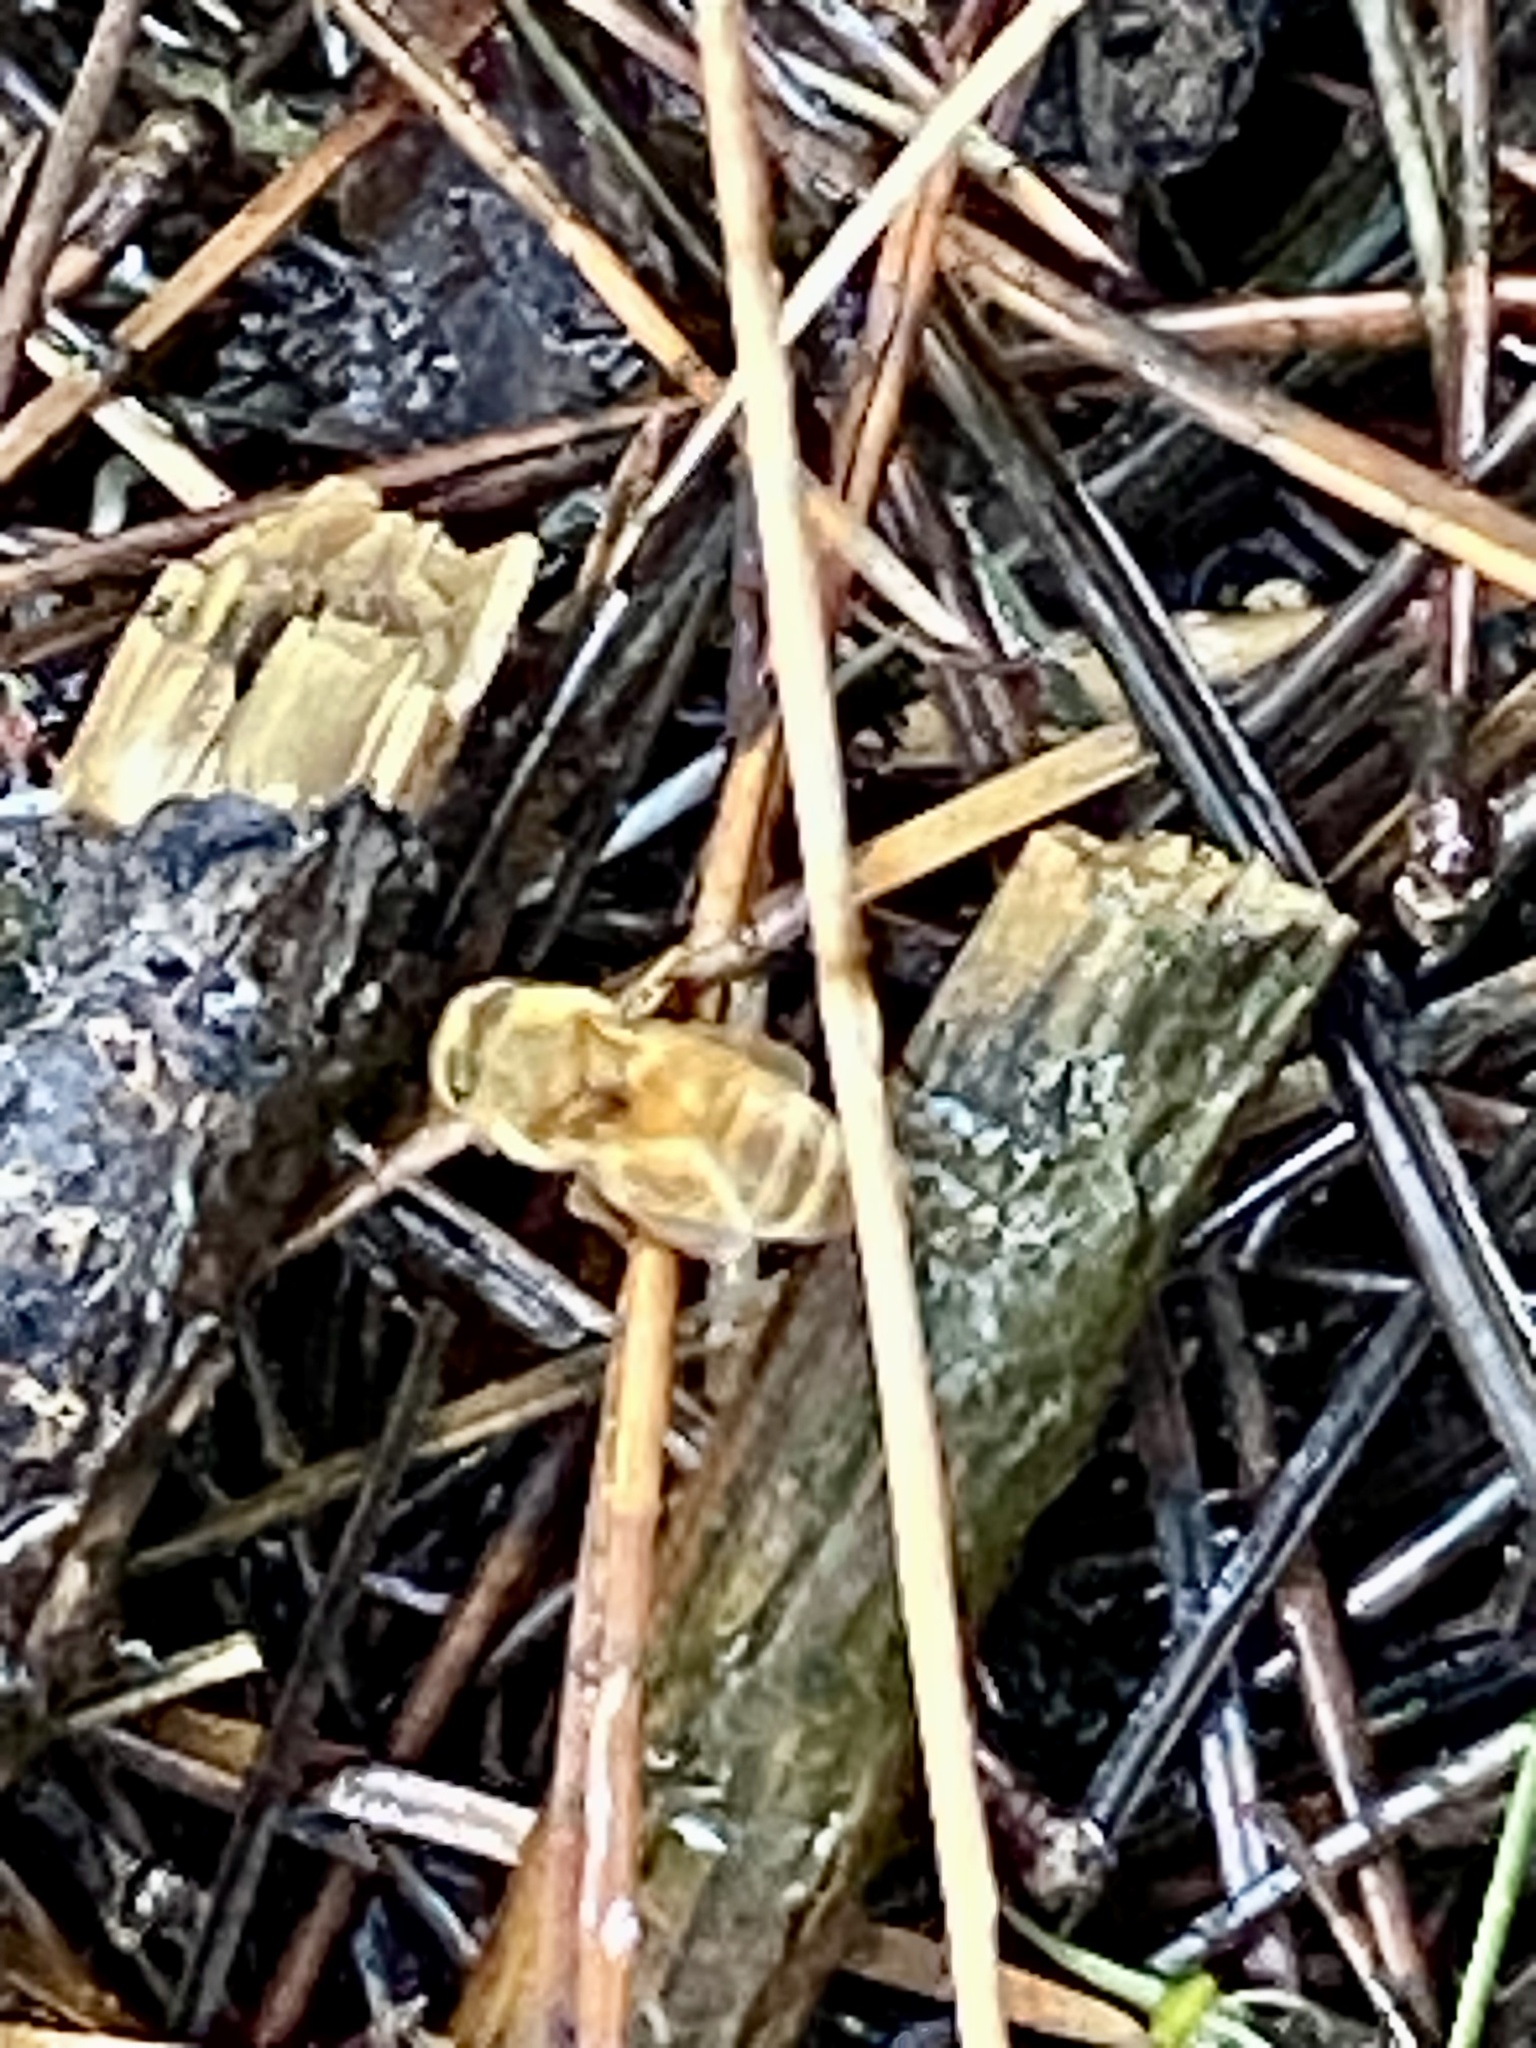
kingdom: Animalia
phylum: Arthropoda
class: Insecta
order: Hymenoptera
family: Apidae
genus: Apis
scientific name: Apis mellifera
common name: Honey bee
